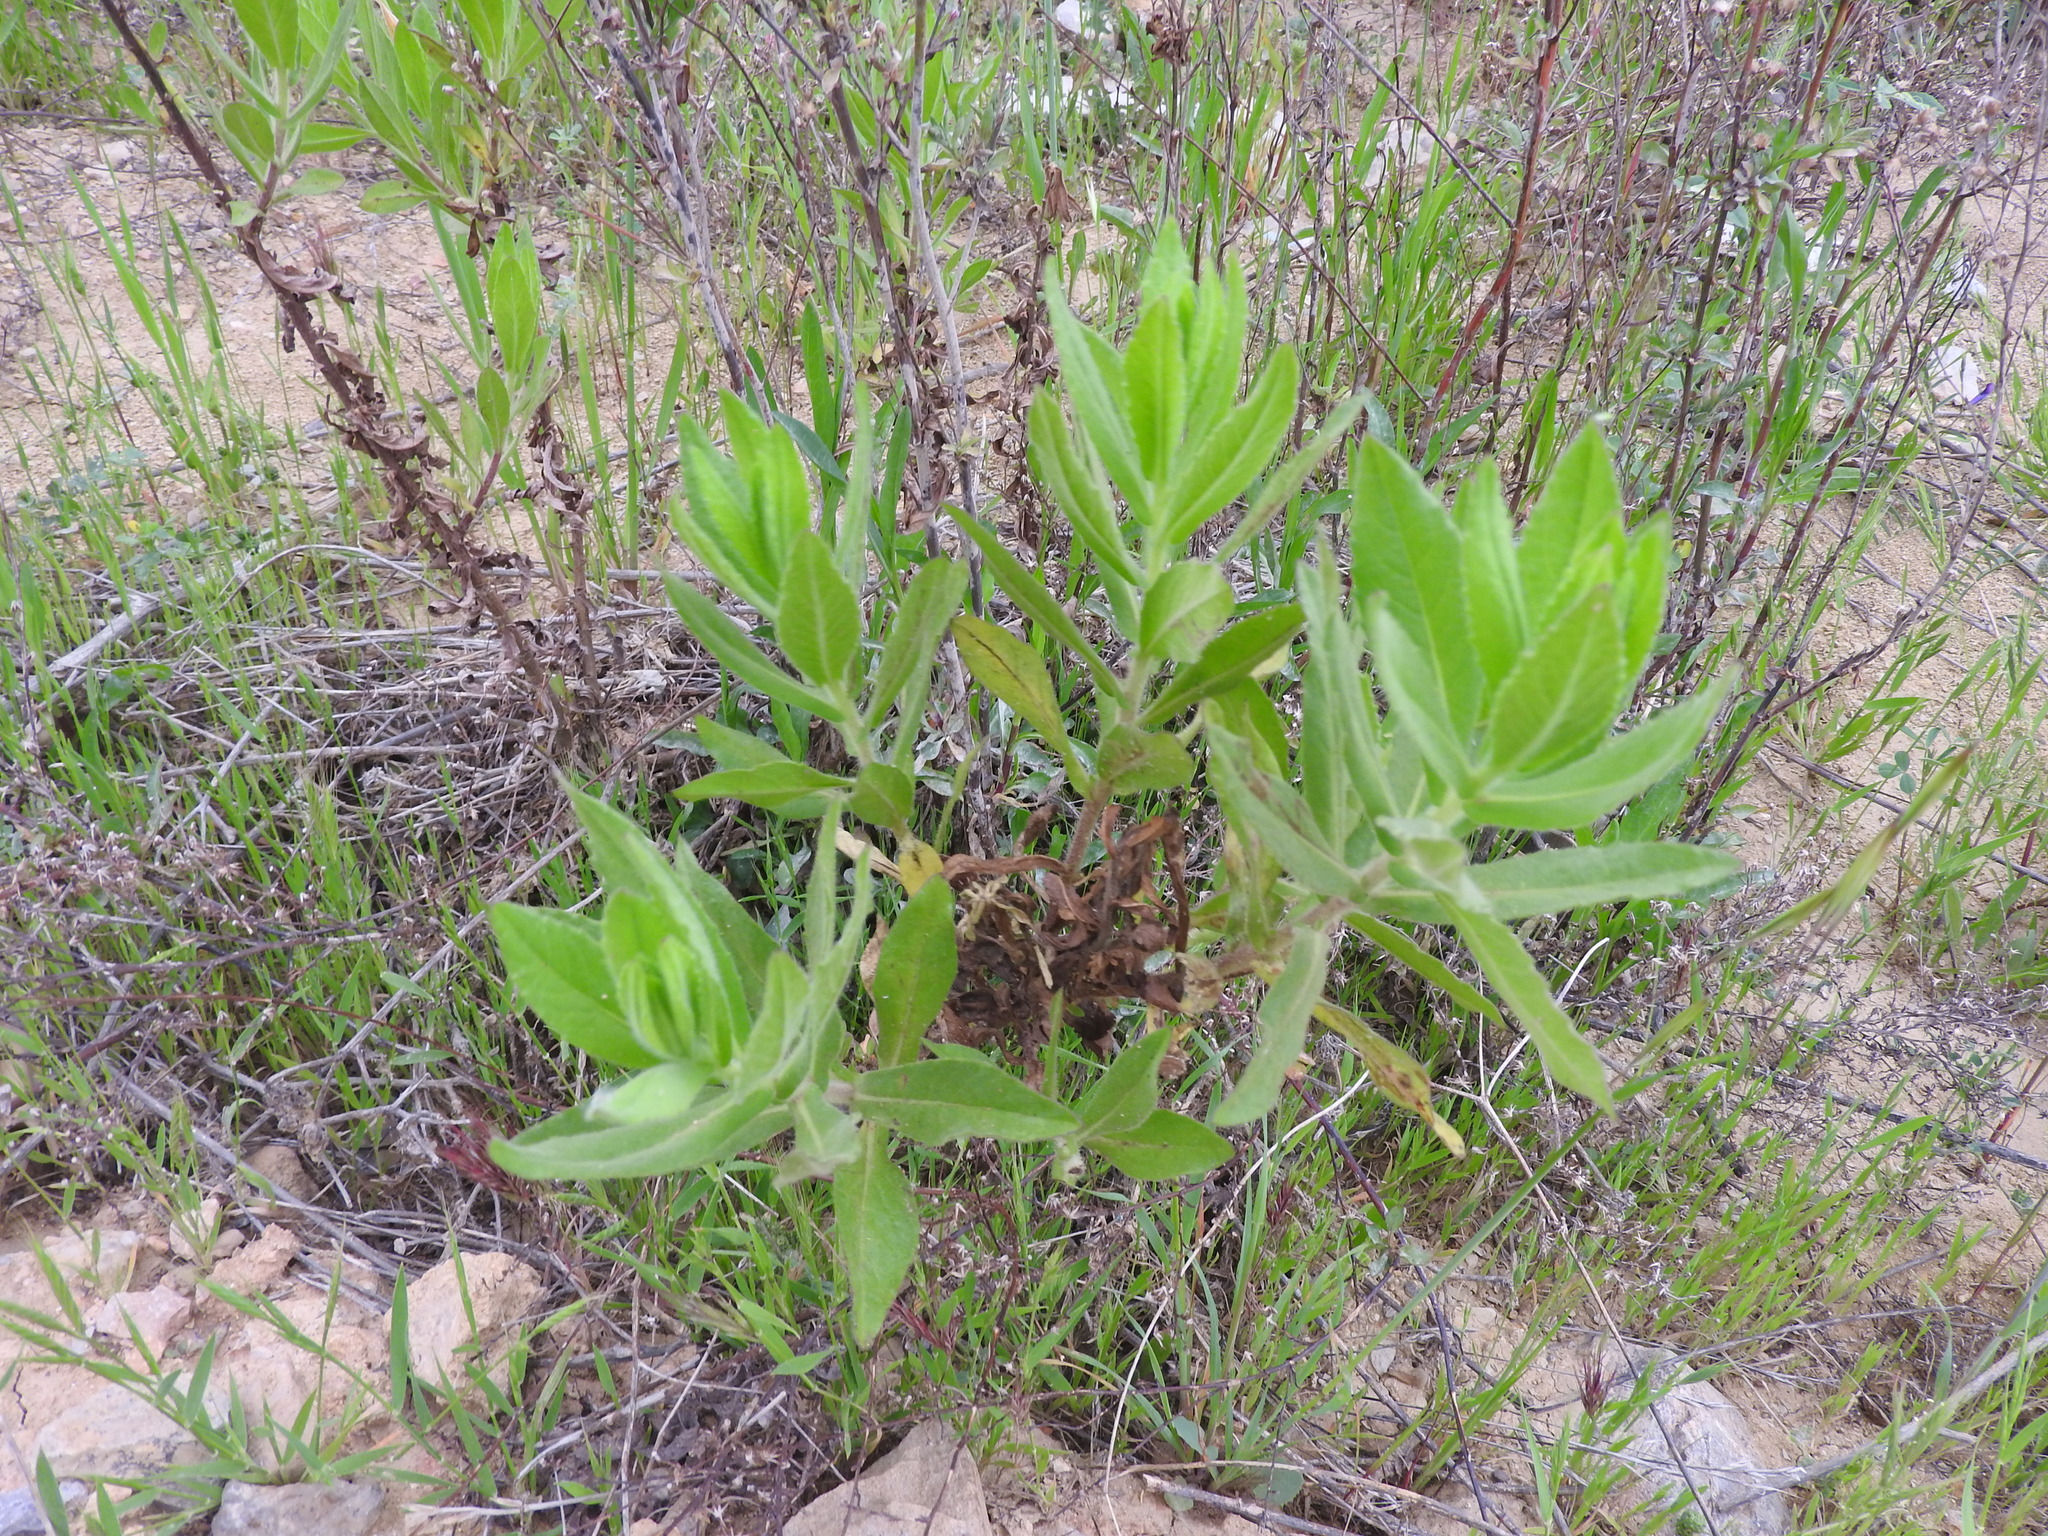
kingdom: Plantae
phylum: Tracheophyta
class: Magnoliopsida
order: Asterales
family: Asteraceae
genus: Dittrichia
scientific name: Dittrichia viscosa
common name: Woody fleabane
